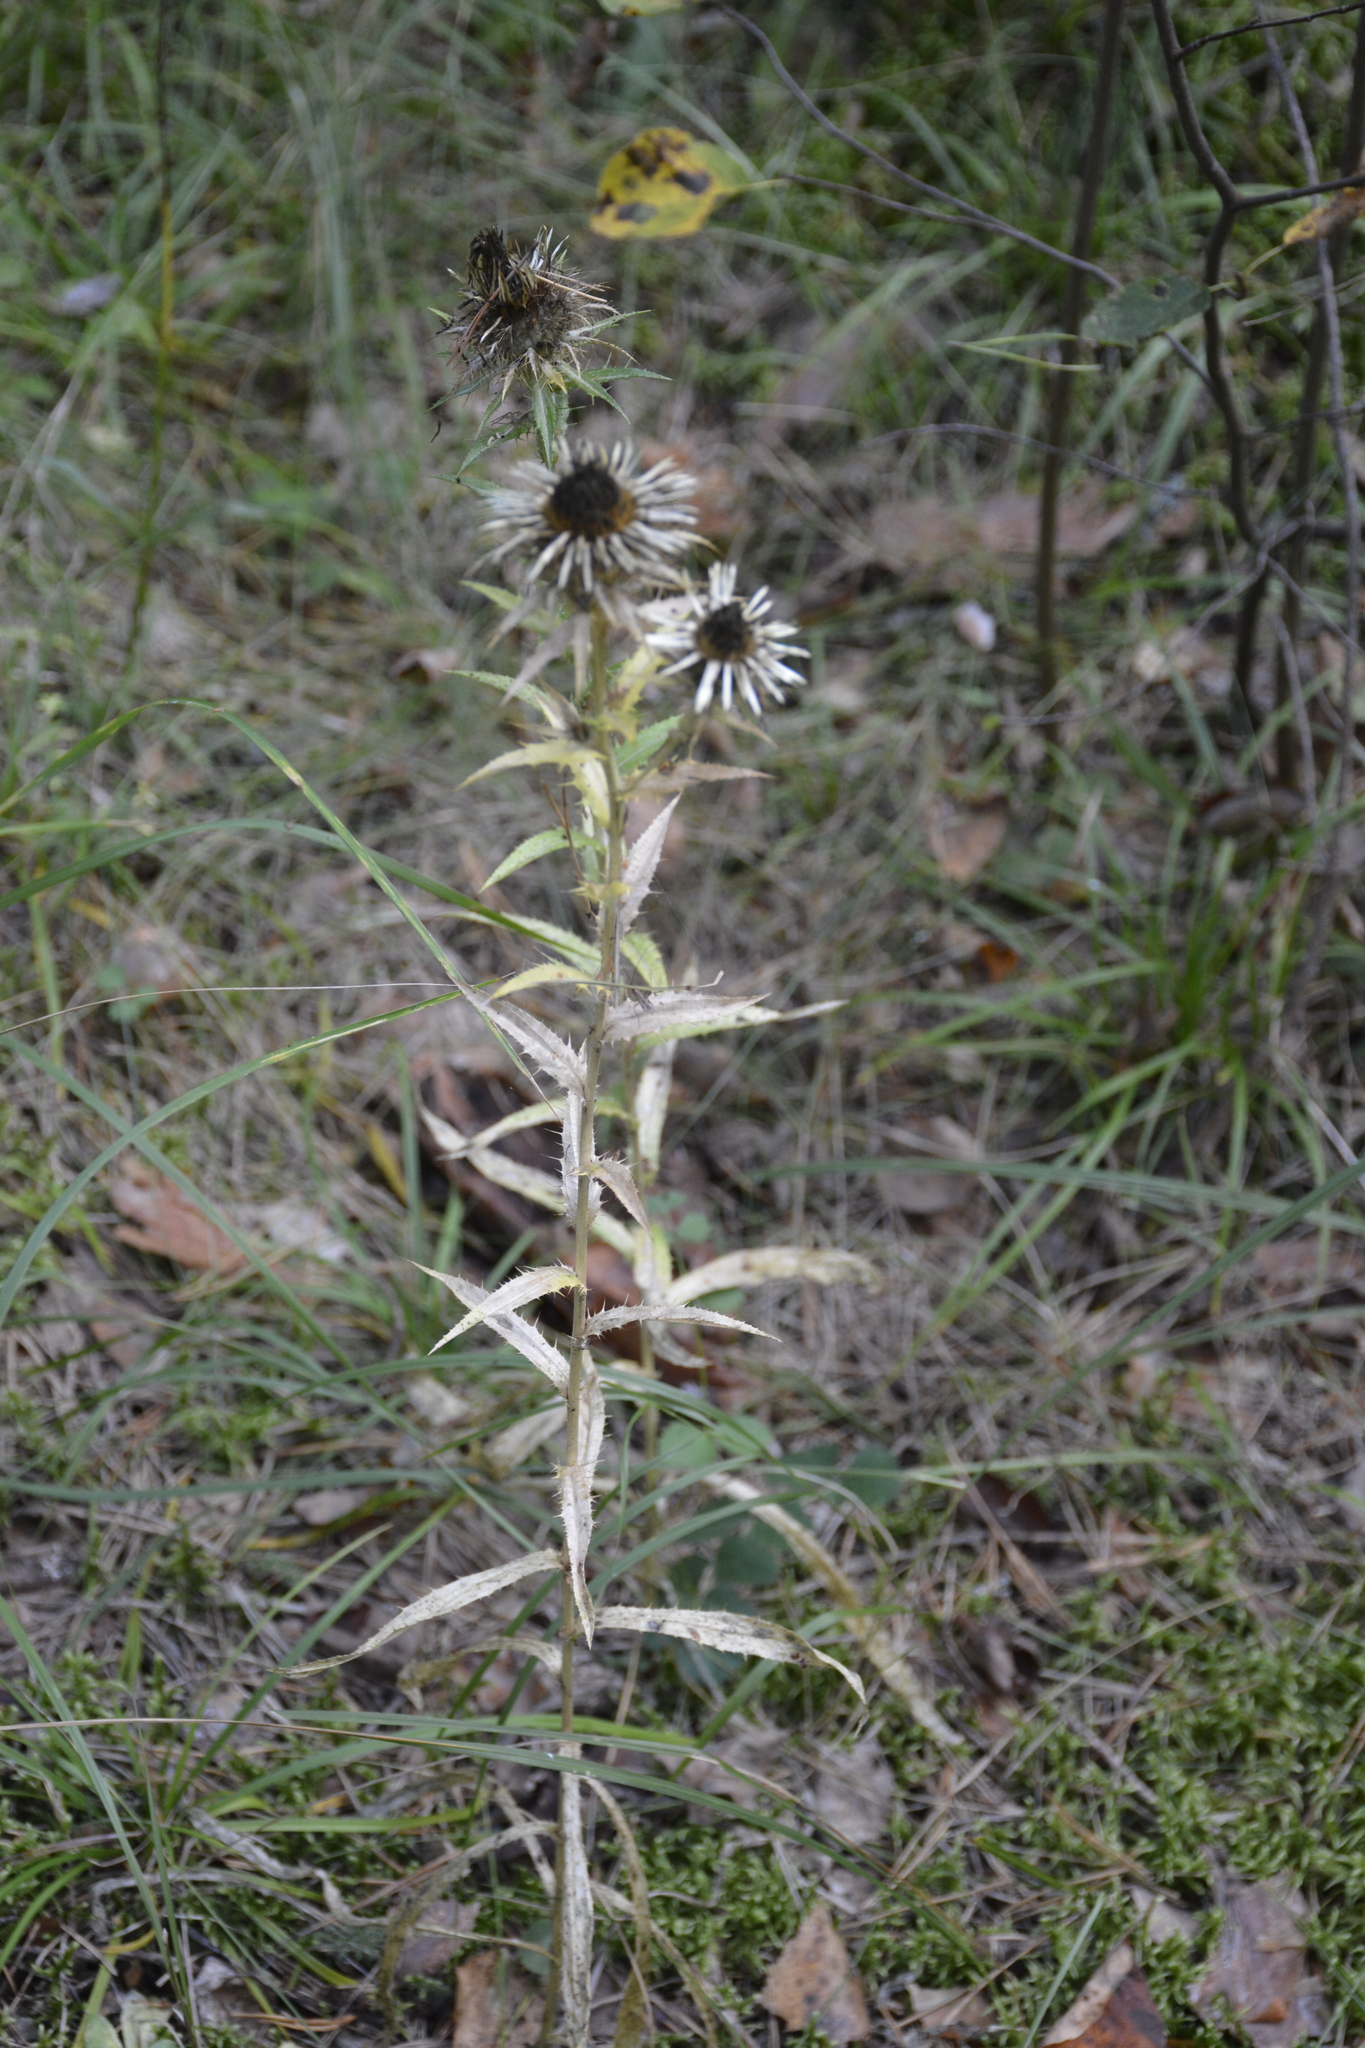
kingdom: Plantae
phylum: Tracheophyta
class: Magnoliopsida
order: Asterales
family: Asteraceae
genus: Carlina
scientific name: Carlina biebersteinii
